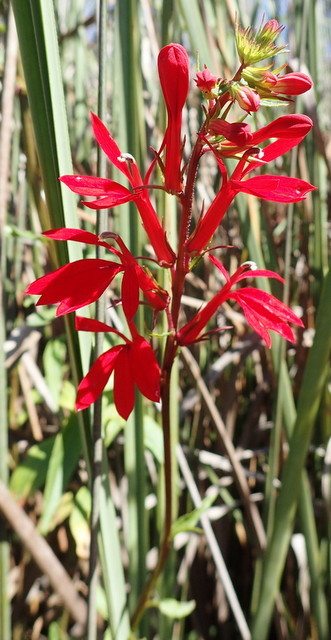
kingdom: Plantae
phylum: Tracheophyta
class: Magnoliopsida
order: Asterales
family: Campanulaceae
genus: Lobelia
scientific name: Lobelia cardinalis
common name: Cardinal flower
